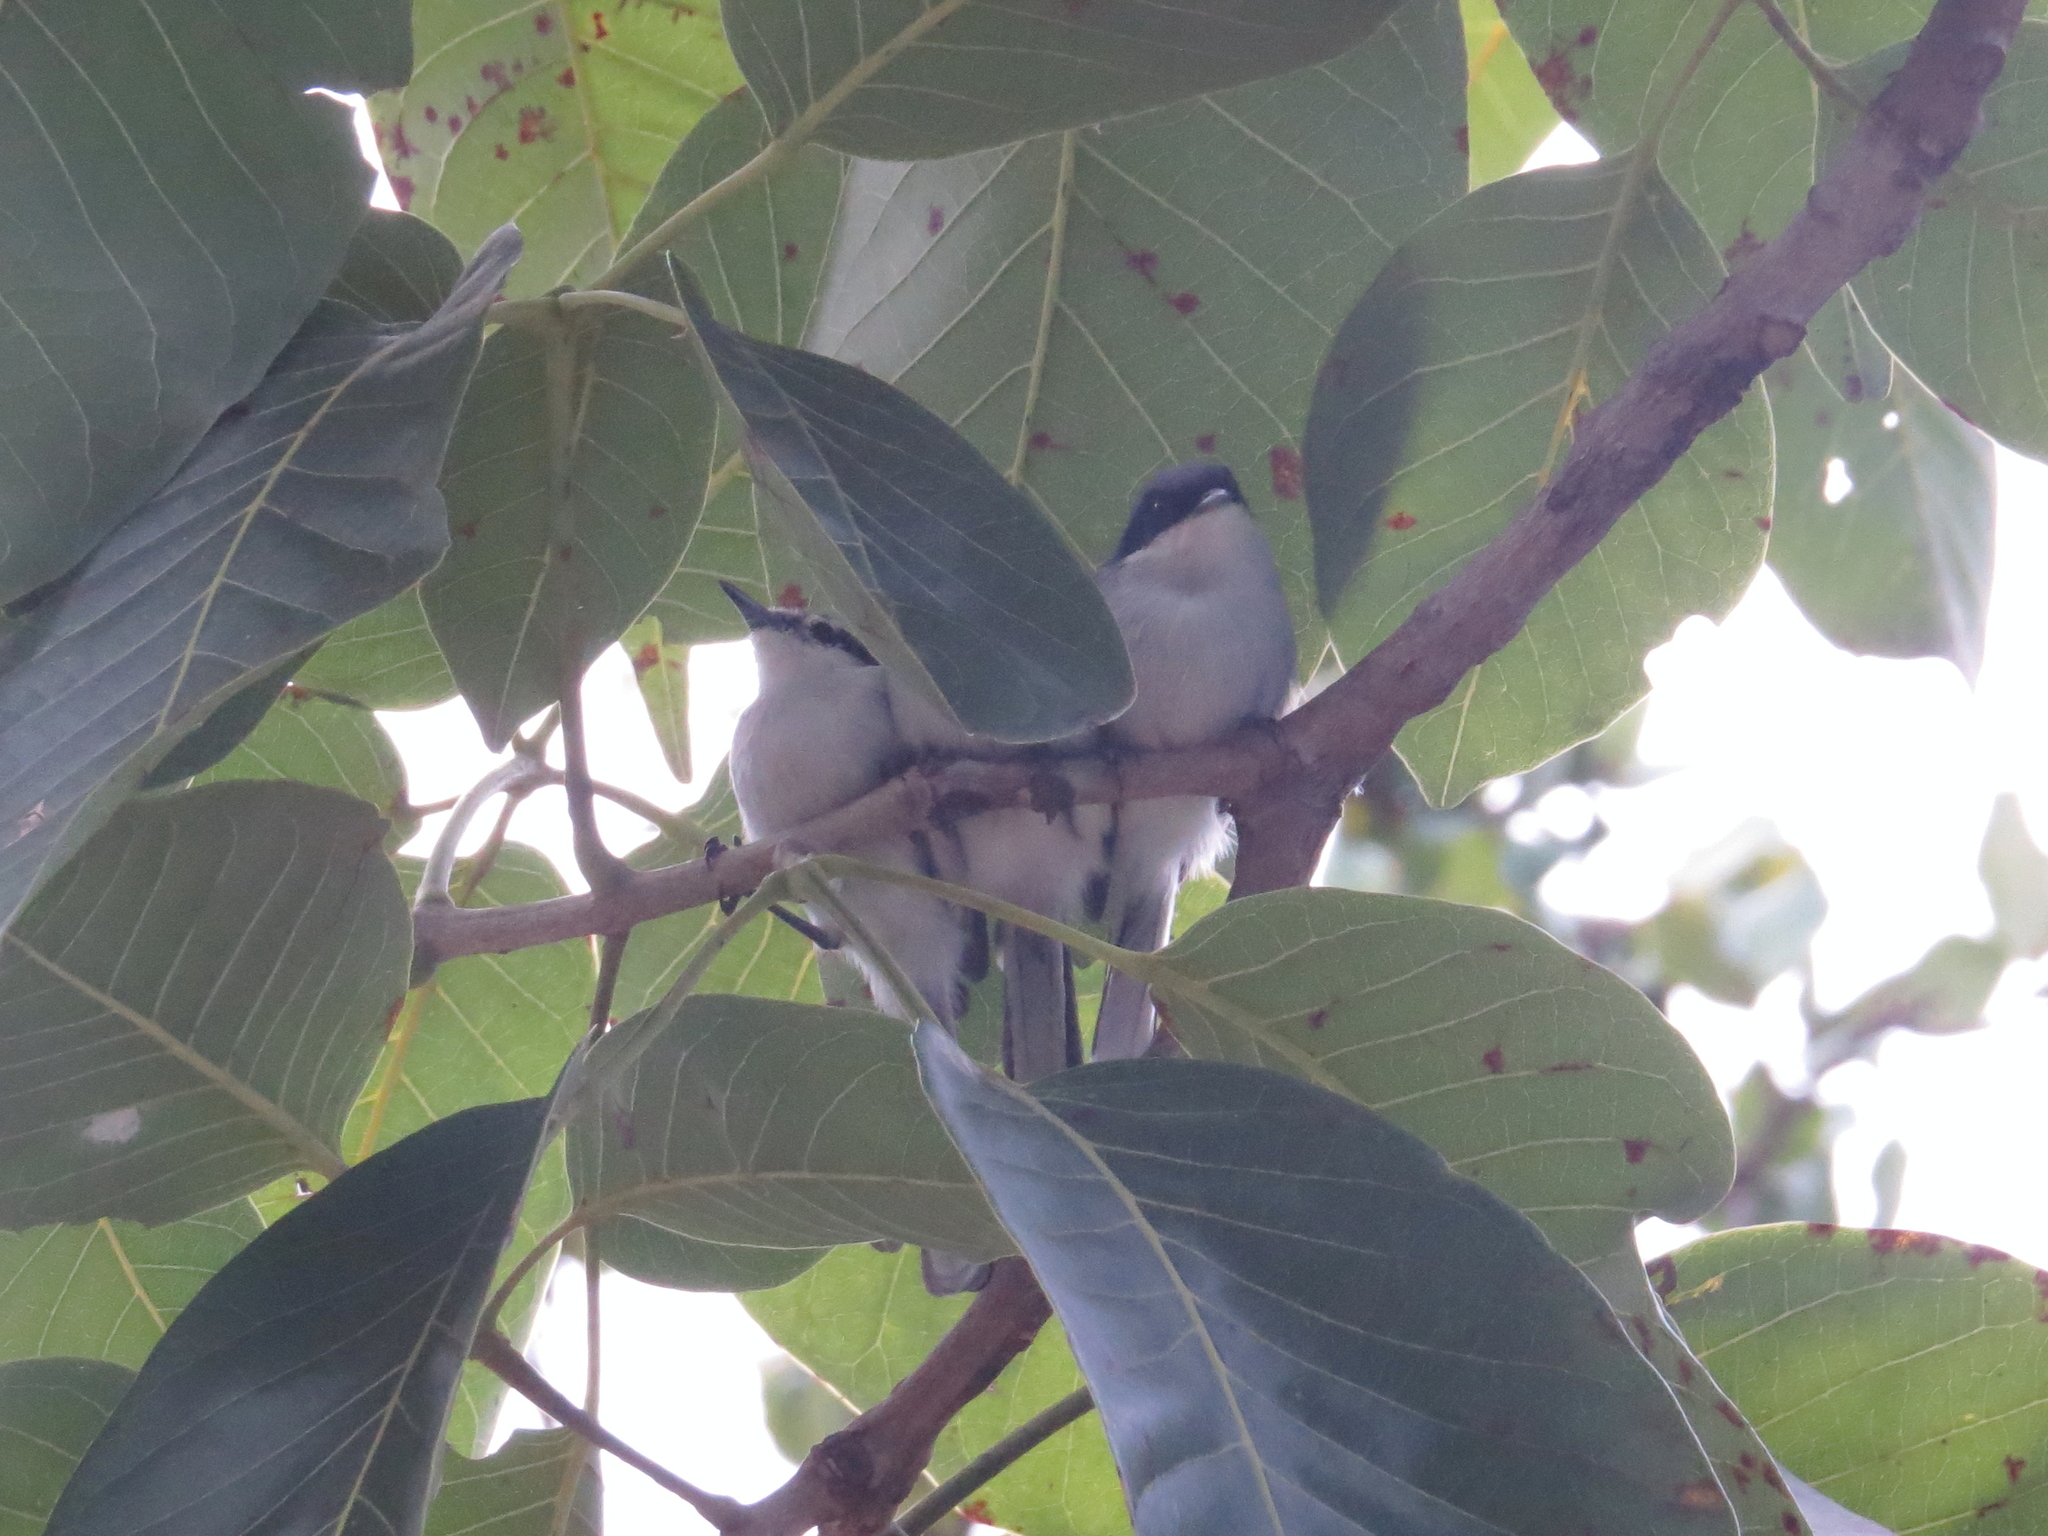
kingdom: Animalia
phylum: Chordata
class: Aves
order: Passeriformes
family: Polioptilidae
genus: Polioptila
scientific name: Polioptila dumicola
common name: Masked gnatcatcher
